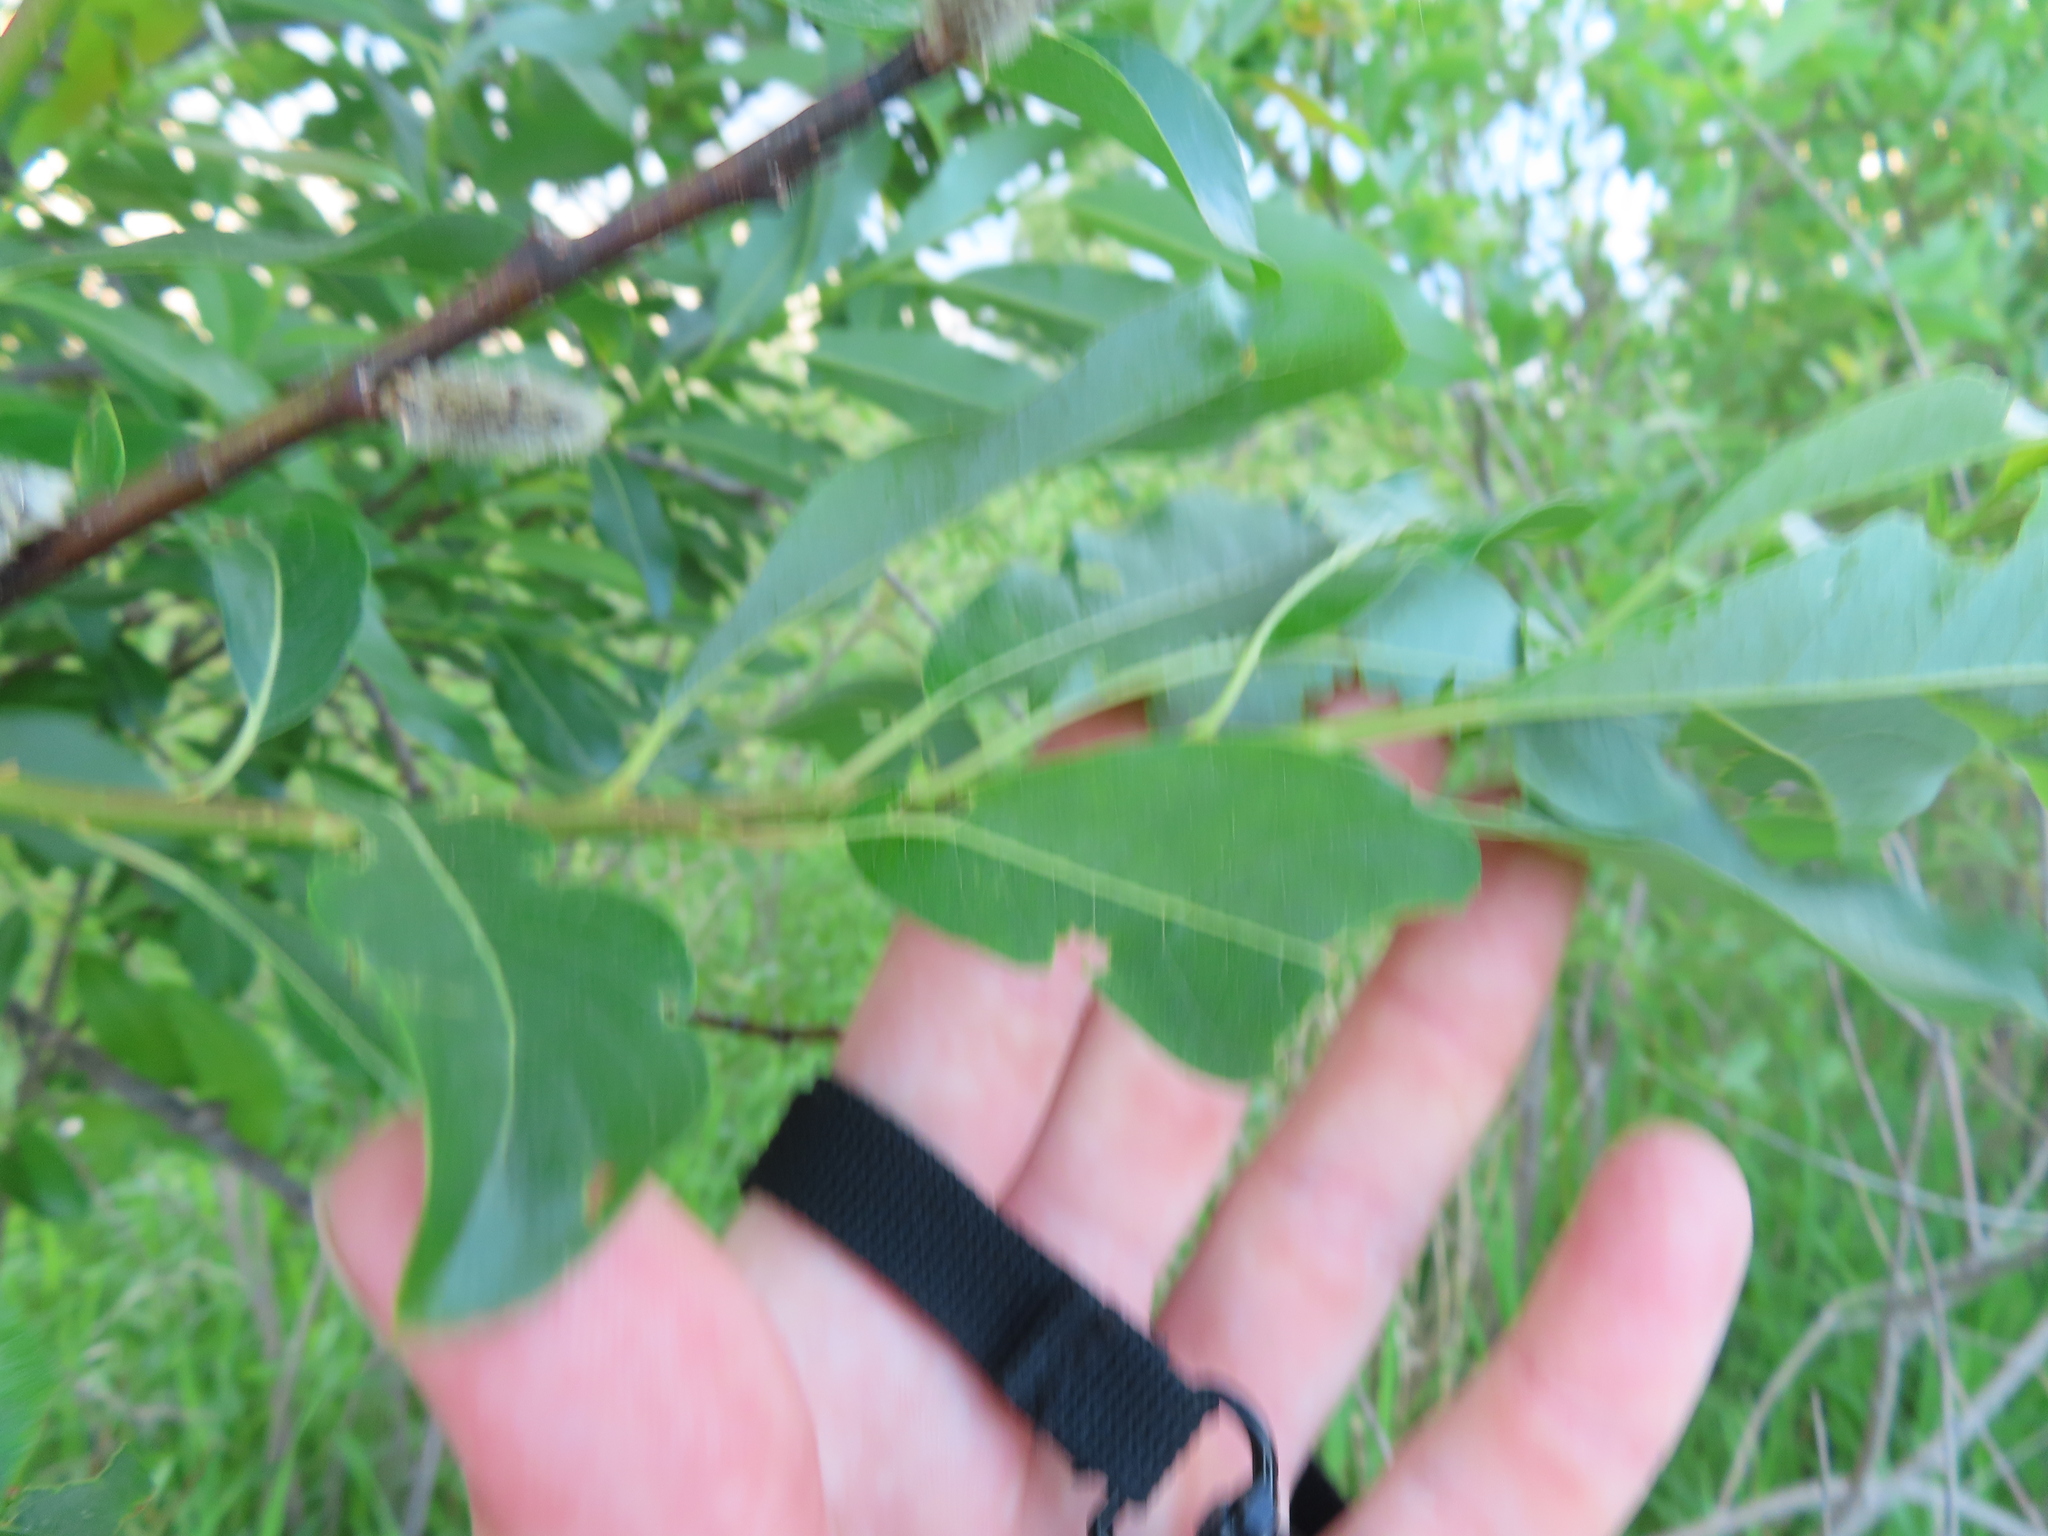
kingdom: Plantae
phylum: Tracheophyta
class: Magnoliopsida
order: Malpighiales
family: Salicaceae
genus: Salix
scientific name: Salix discolor
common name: Glaucous willow
